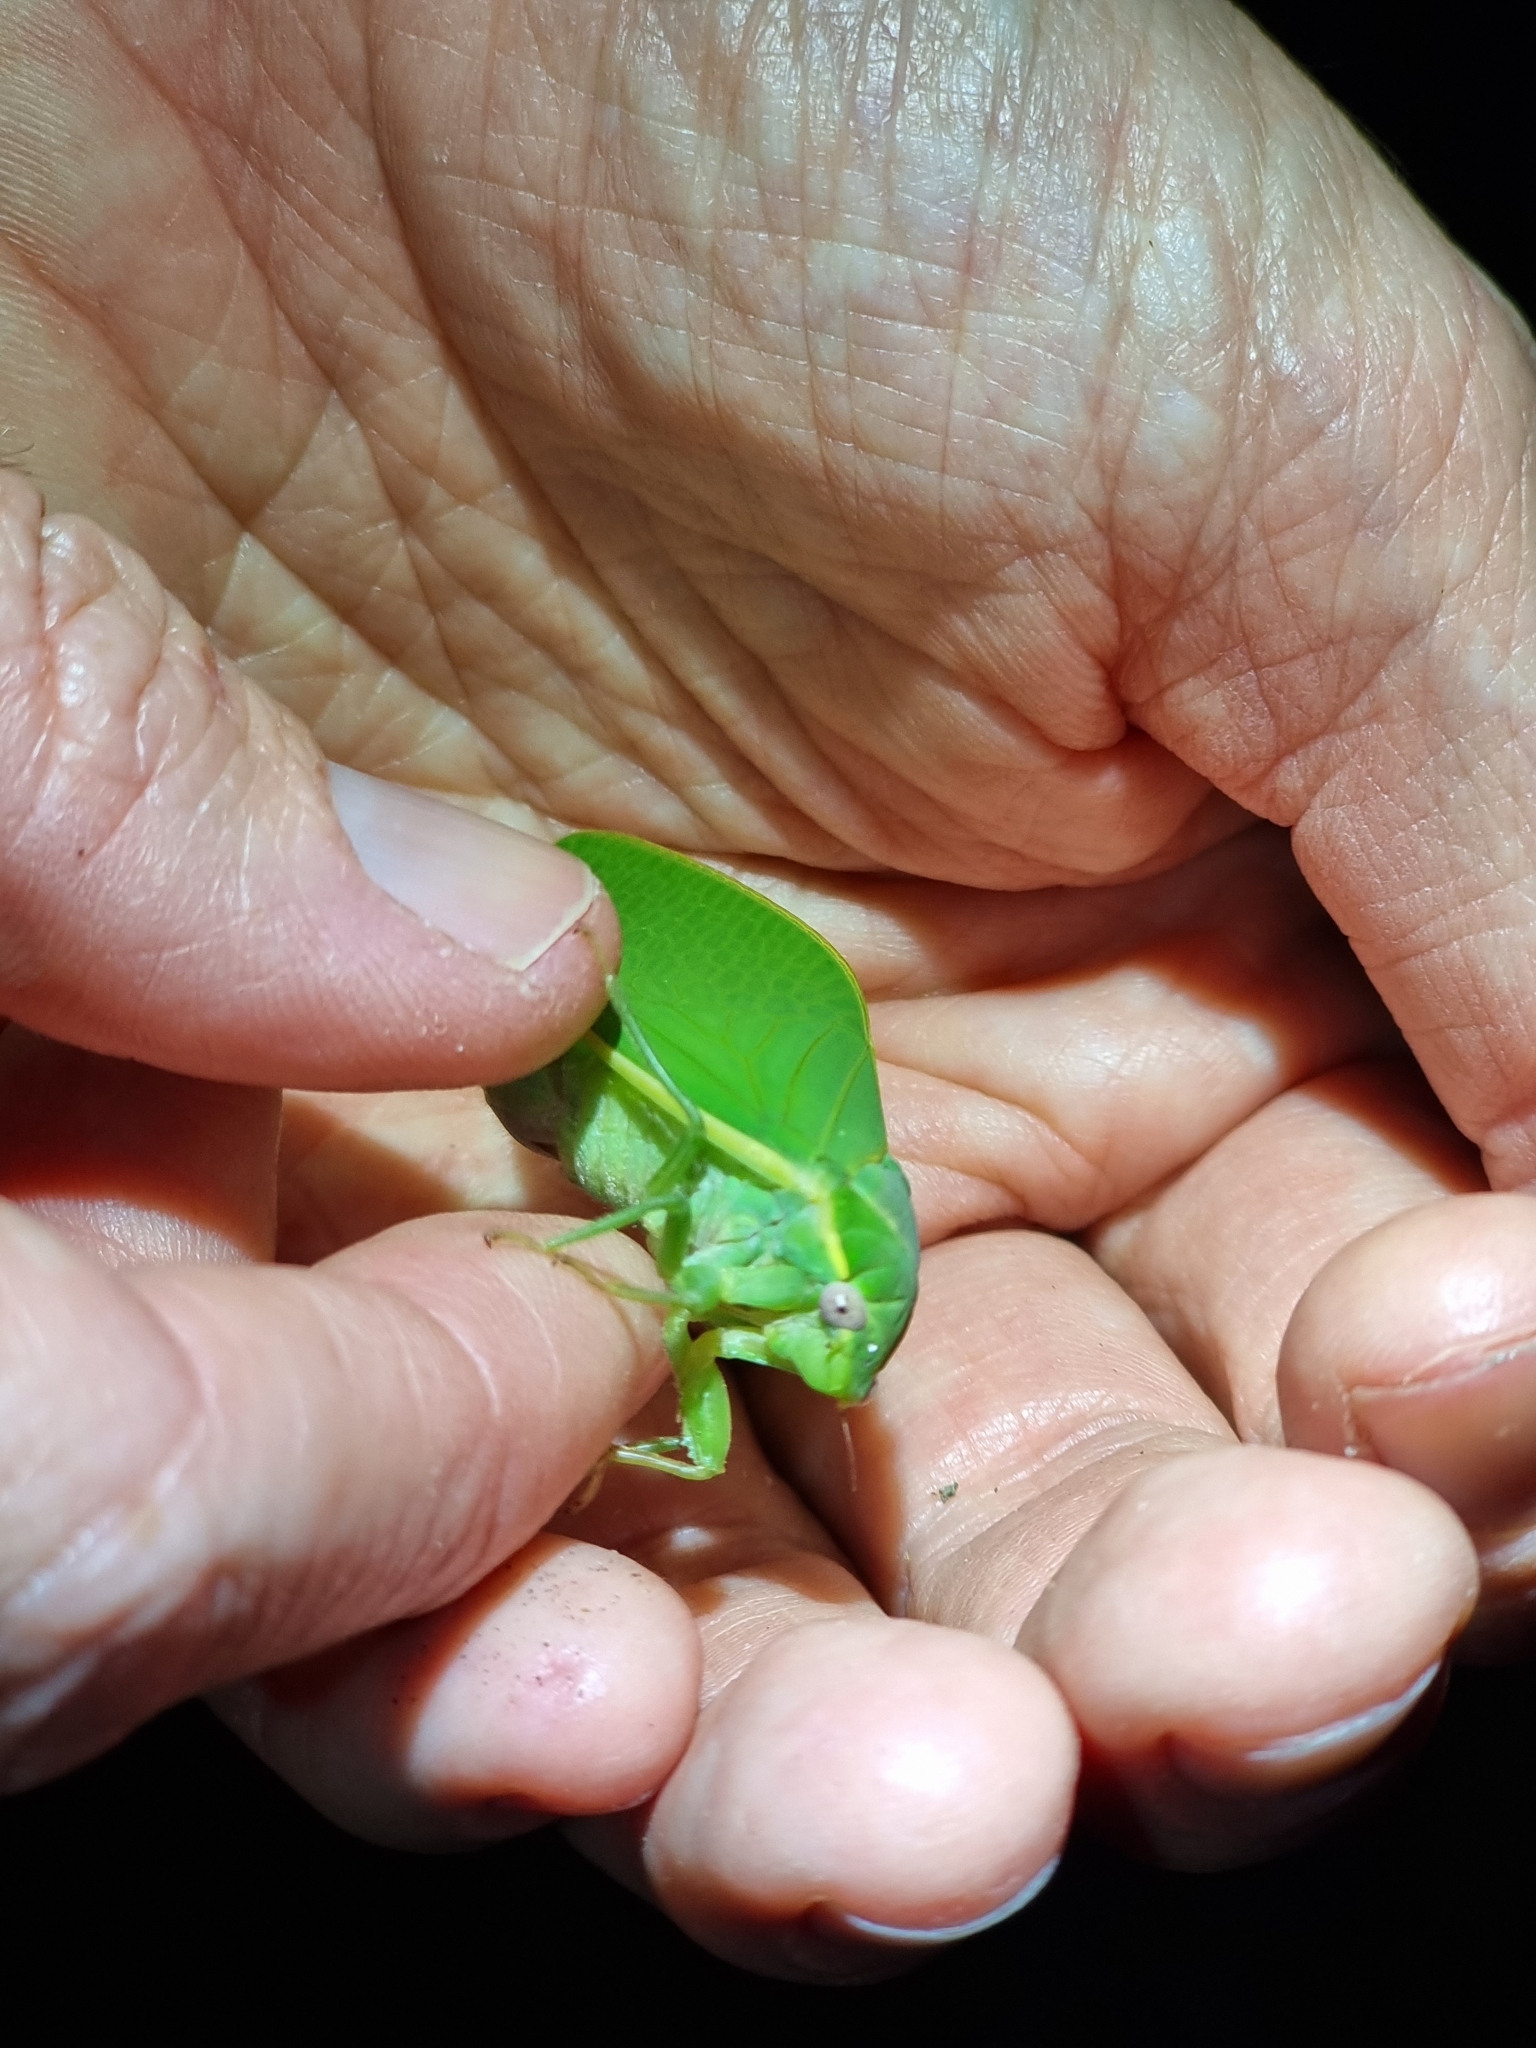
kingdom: Animalia
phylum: Arthropoda
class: Insecta
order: Hemiptera
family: Cicadidae
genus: Cystopsaltria
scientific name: Cystopsaltria immaculata
